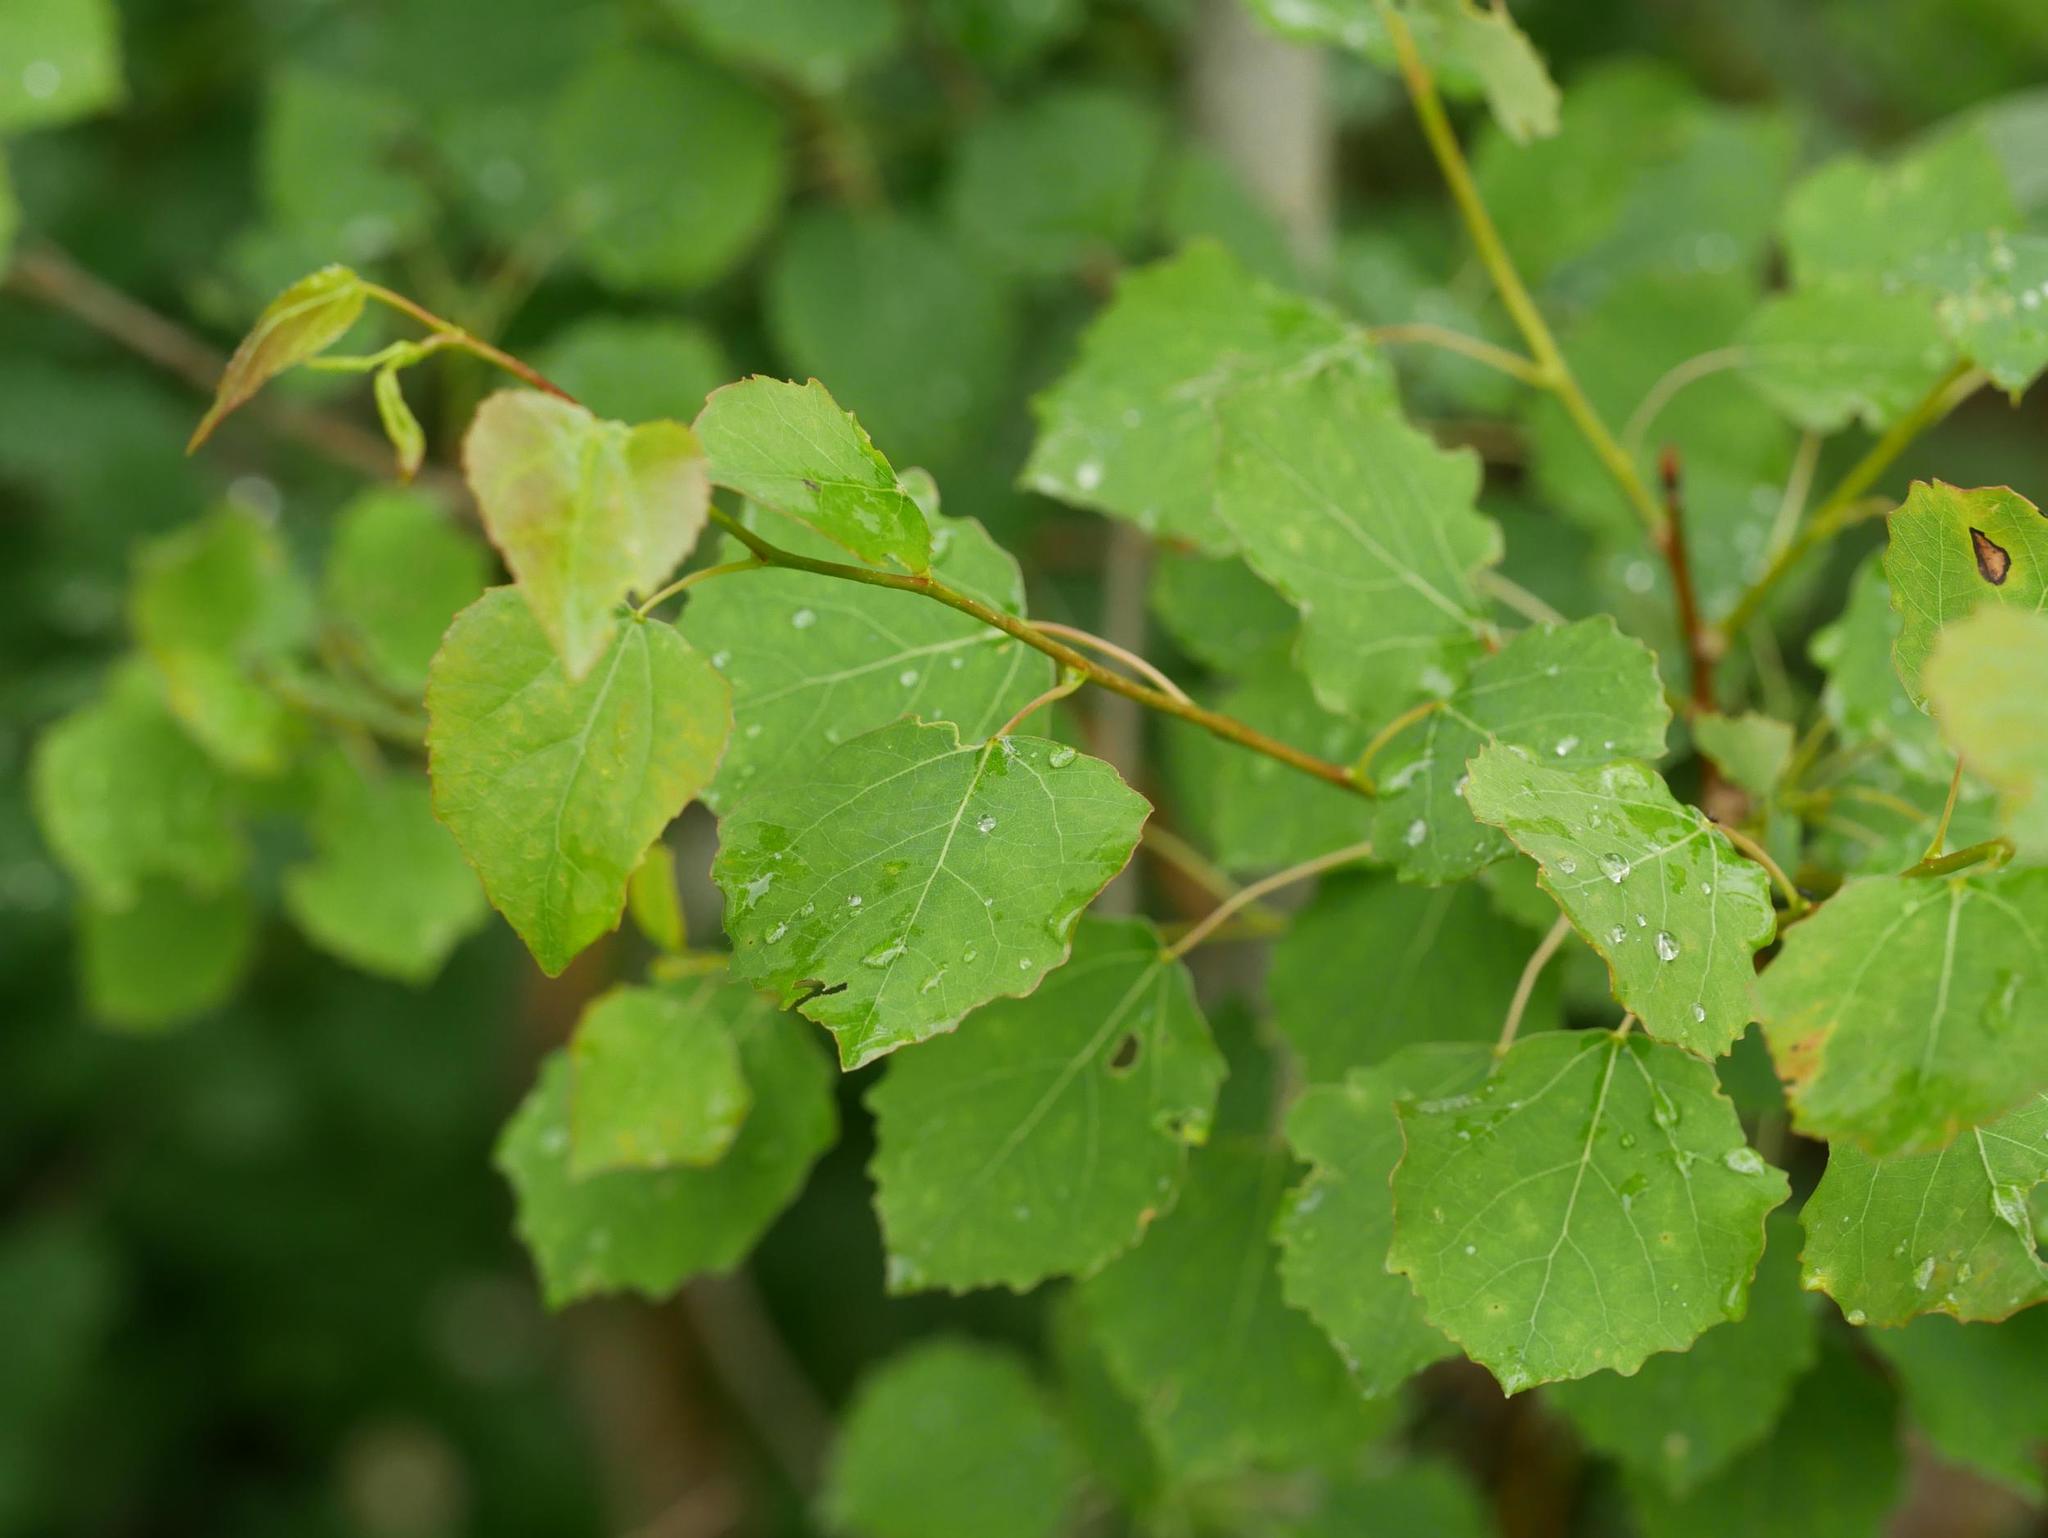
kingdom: Plantae
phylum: Tracheophyta
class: Magnoliopsida
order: Malpighiales
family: Salicaceae
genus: Populus
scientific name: Populus tremula
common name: European aspen
